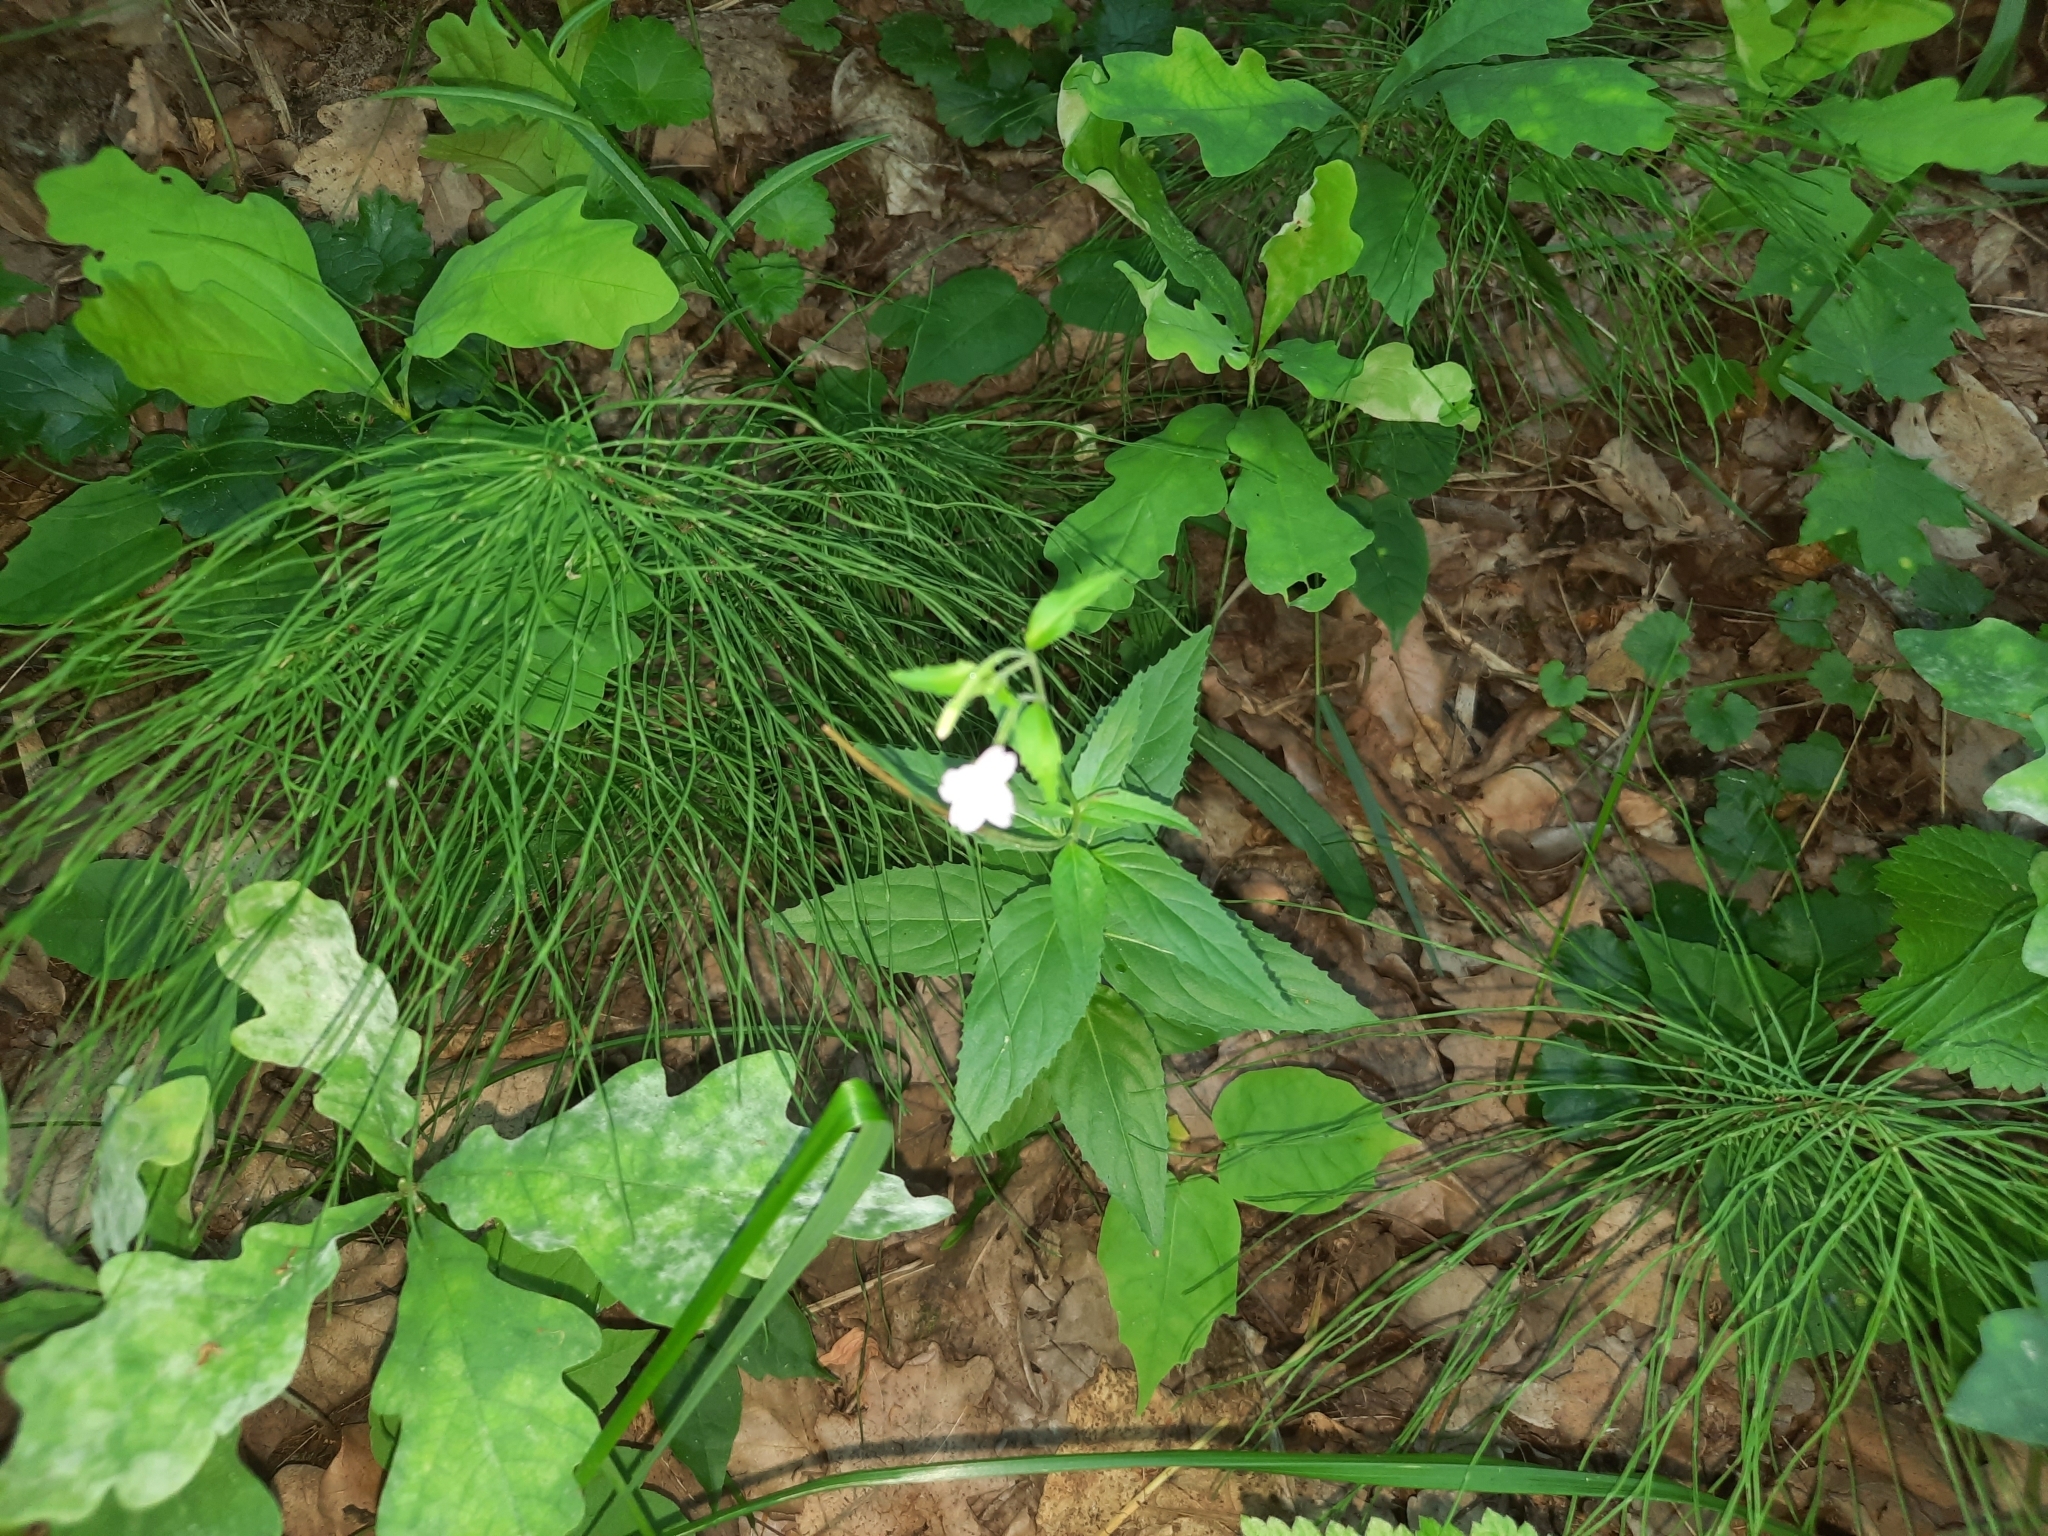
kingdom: Plantae
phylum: Tracheophyta
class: Magnoliopsida
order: Myrtales
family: Onagraceae
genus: Epilobium
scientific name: Epilobium montanum
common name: Broad-leaved willowherb
